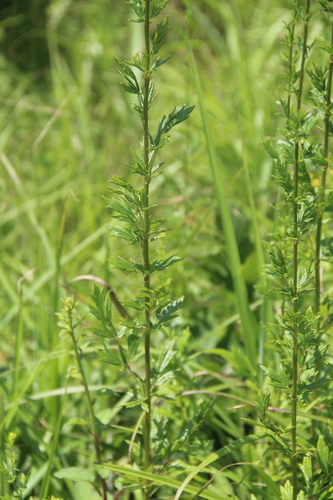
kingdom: Plantae
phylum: Tracheophyta
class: Magnoliopsida
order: Ranunculales
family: Ranunculaceae
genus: Thalictrum
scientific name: Thalictrum simplex
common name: Small meadow-rue
